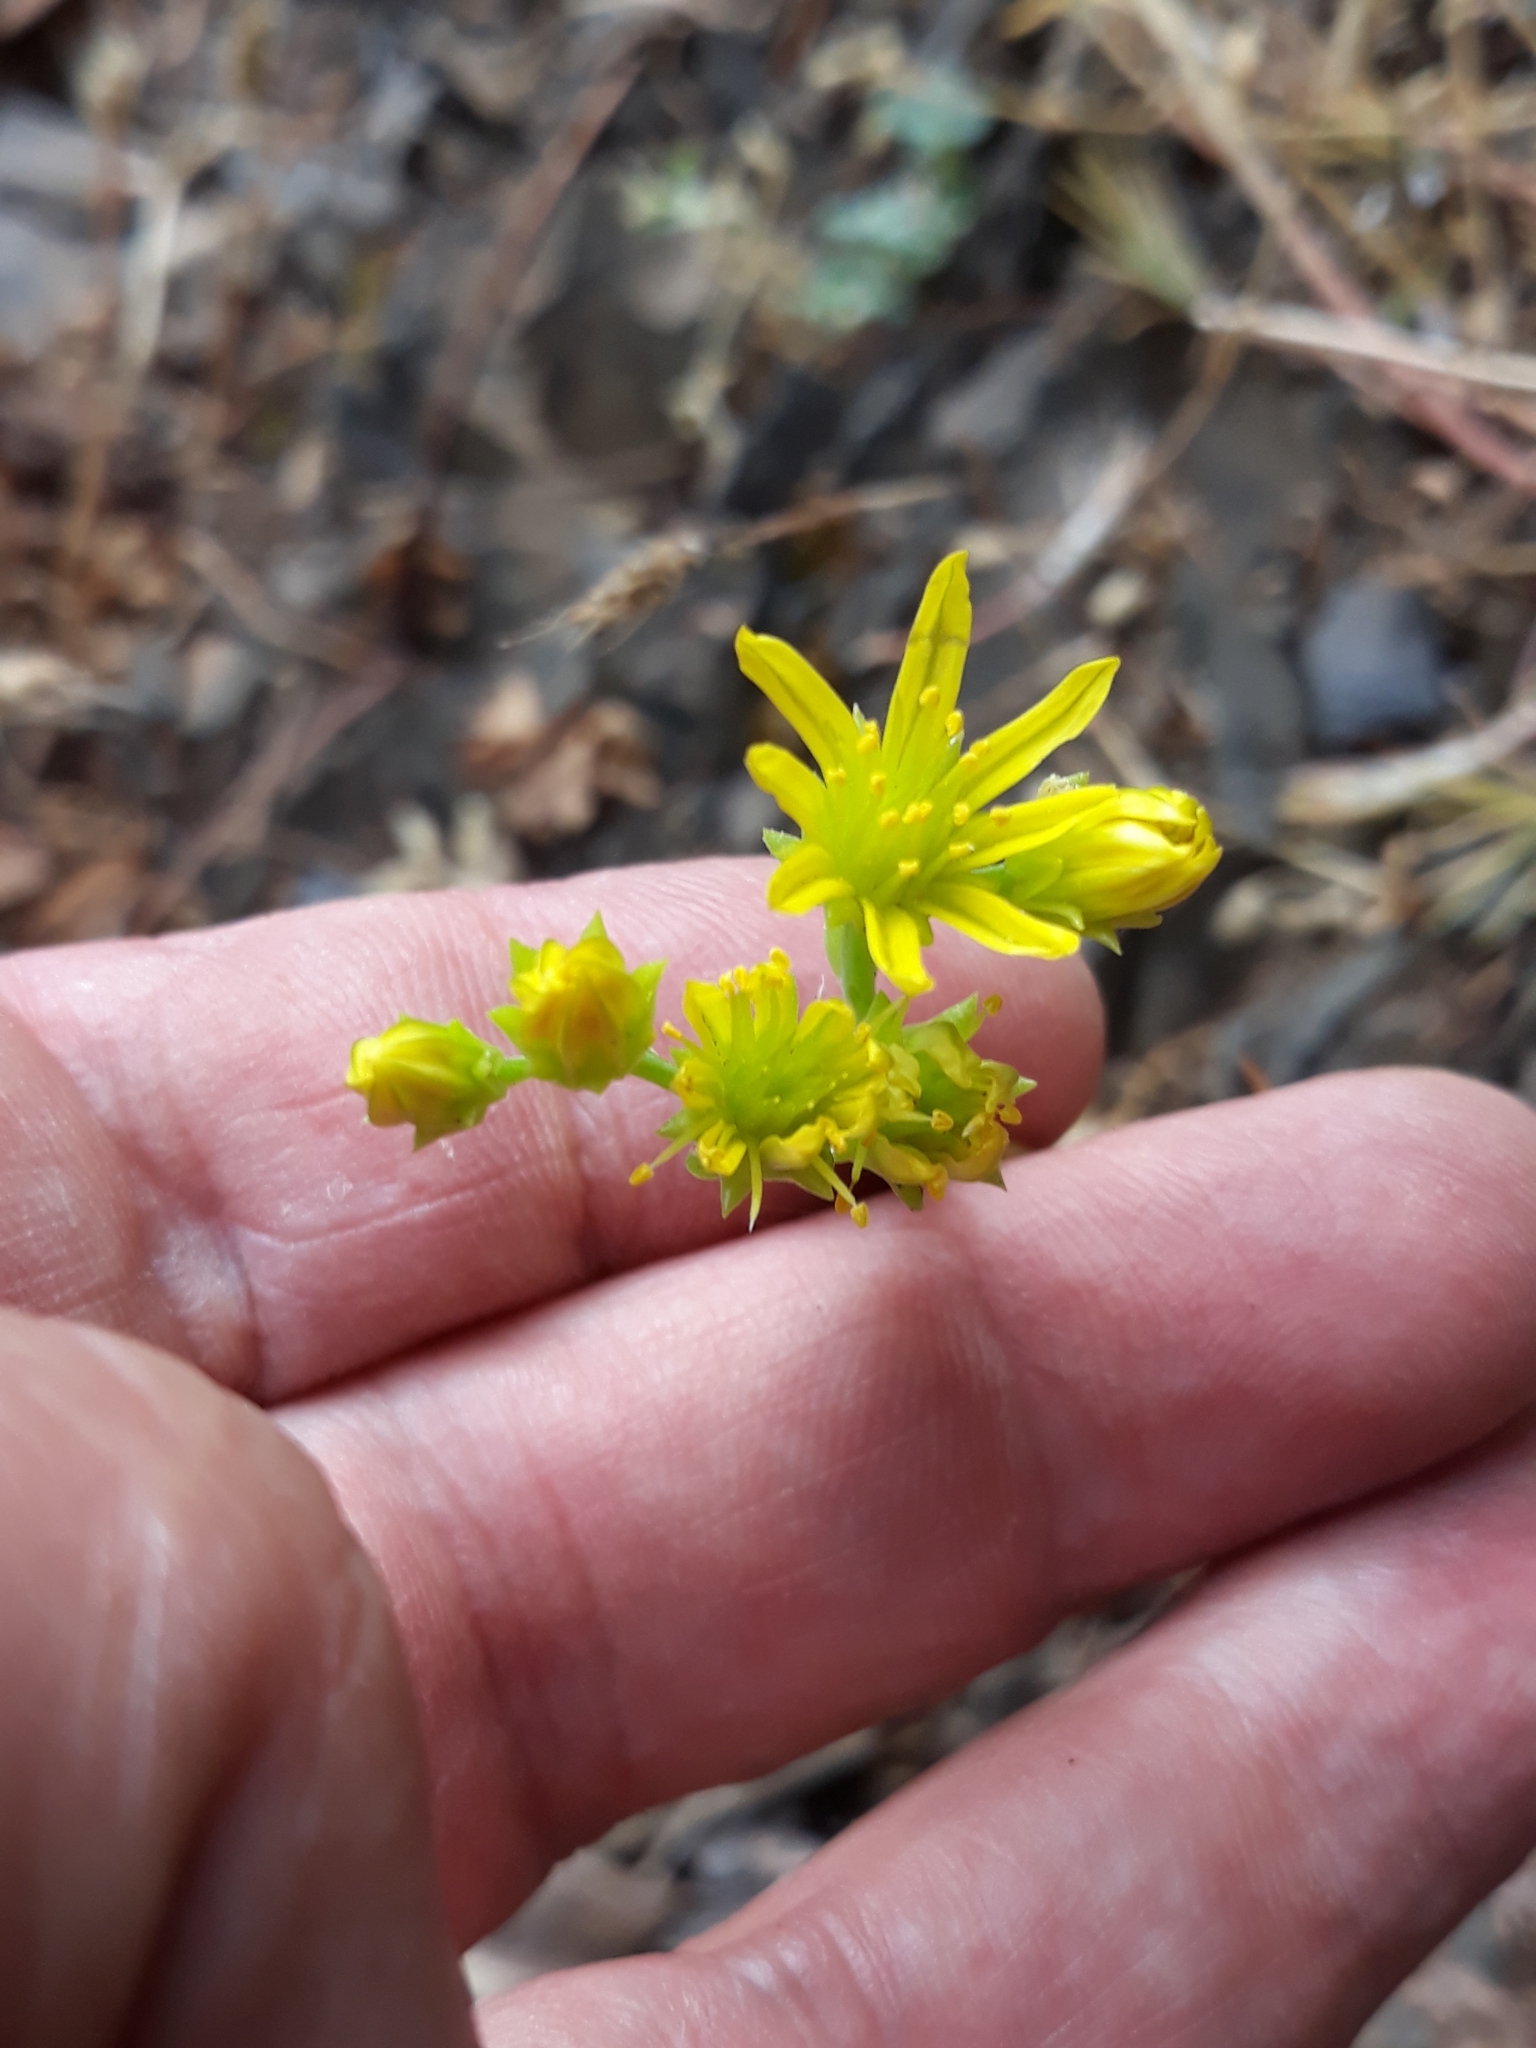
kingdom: Plantae
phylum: Tracheophyta
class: Magnoliopsida
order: Saxifragales
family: Crassulaceae
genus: Petrosedum
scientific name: Petrosedum amplexicaule
